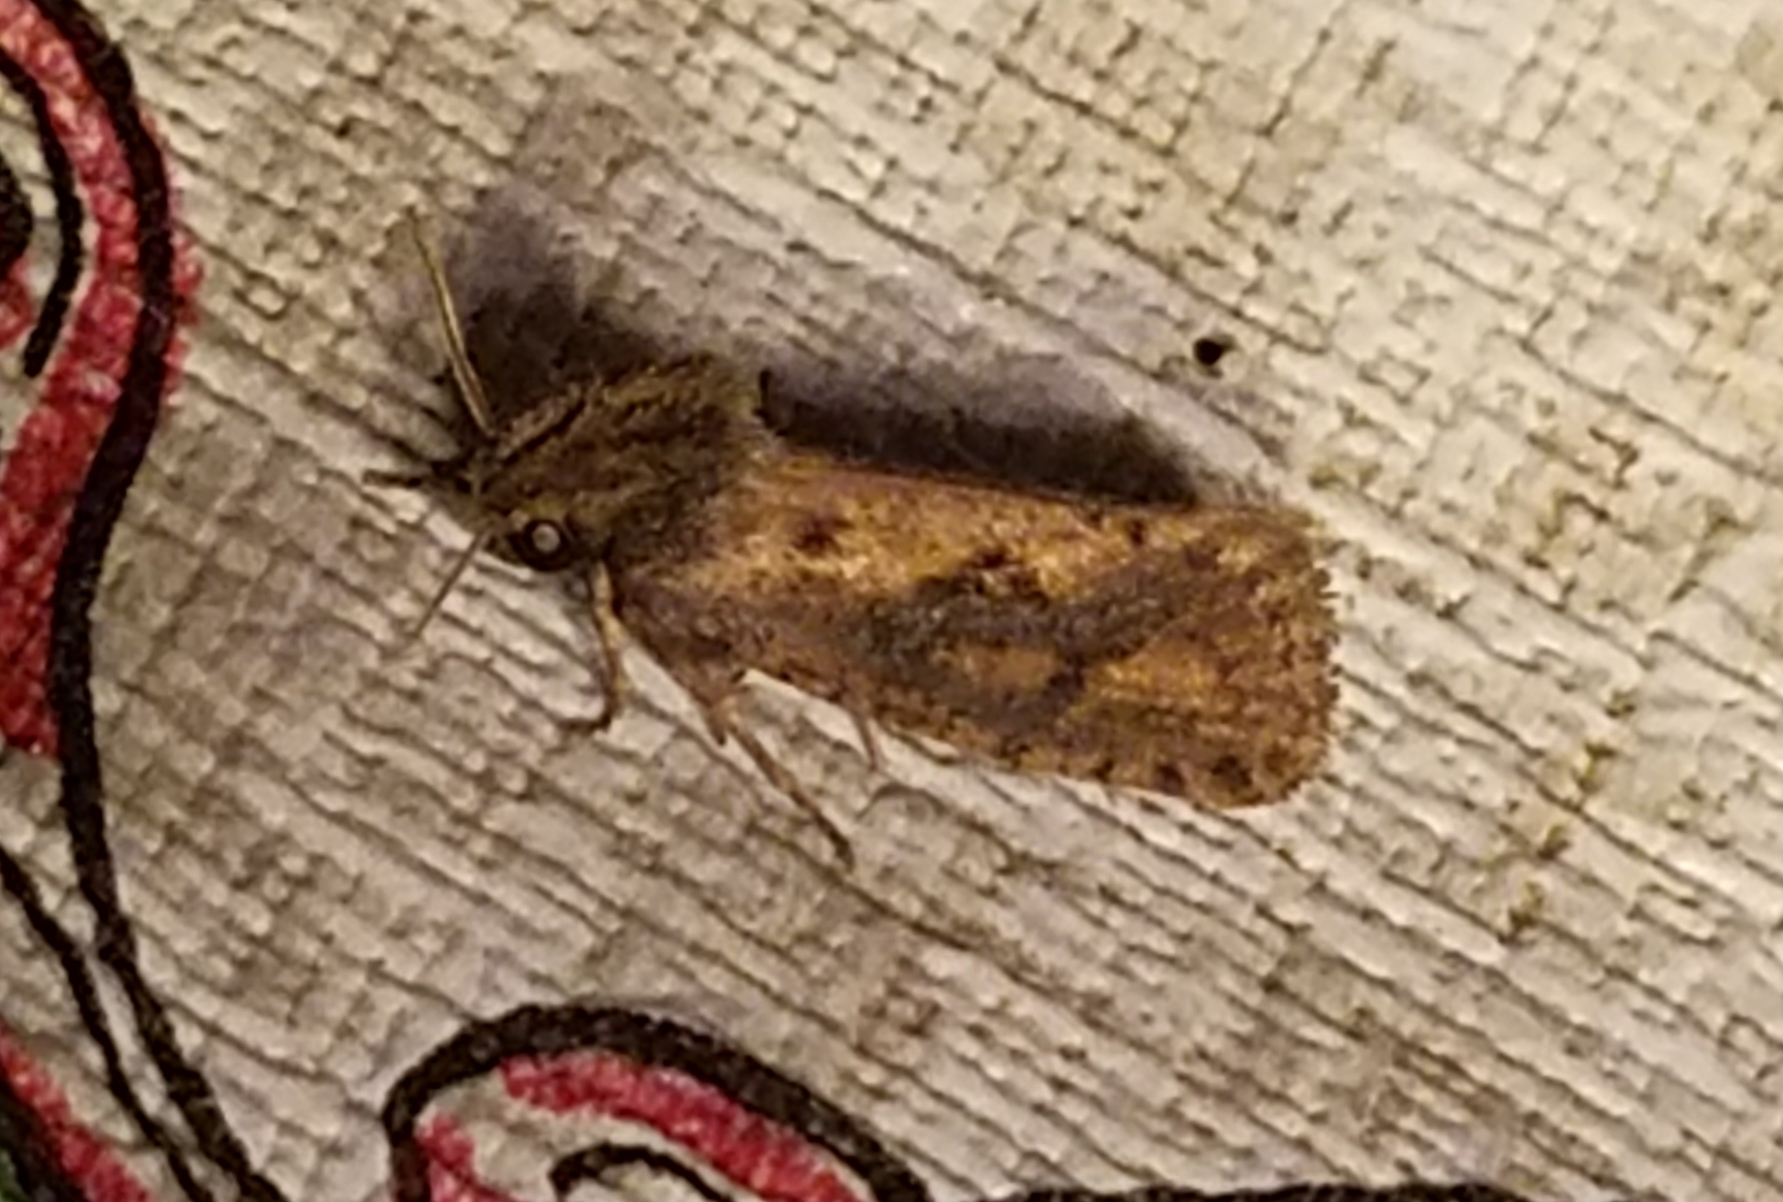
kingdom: Animalia
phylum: Arthropoda
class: Insecta
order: Lepidoptera
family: Tineidae
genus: Acrolophus
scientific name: Acrolophus popeanella
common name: Clemens' grass tubeworm moth
